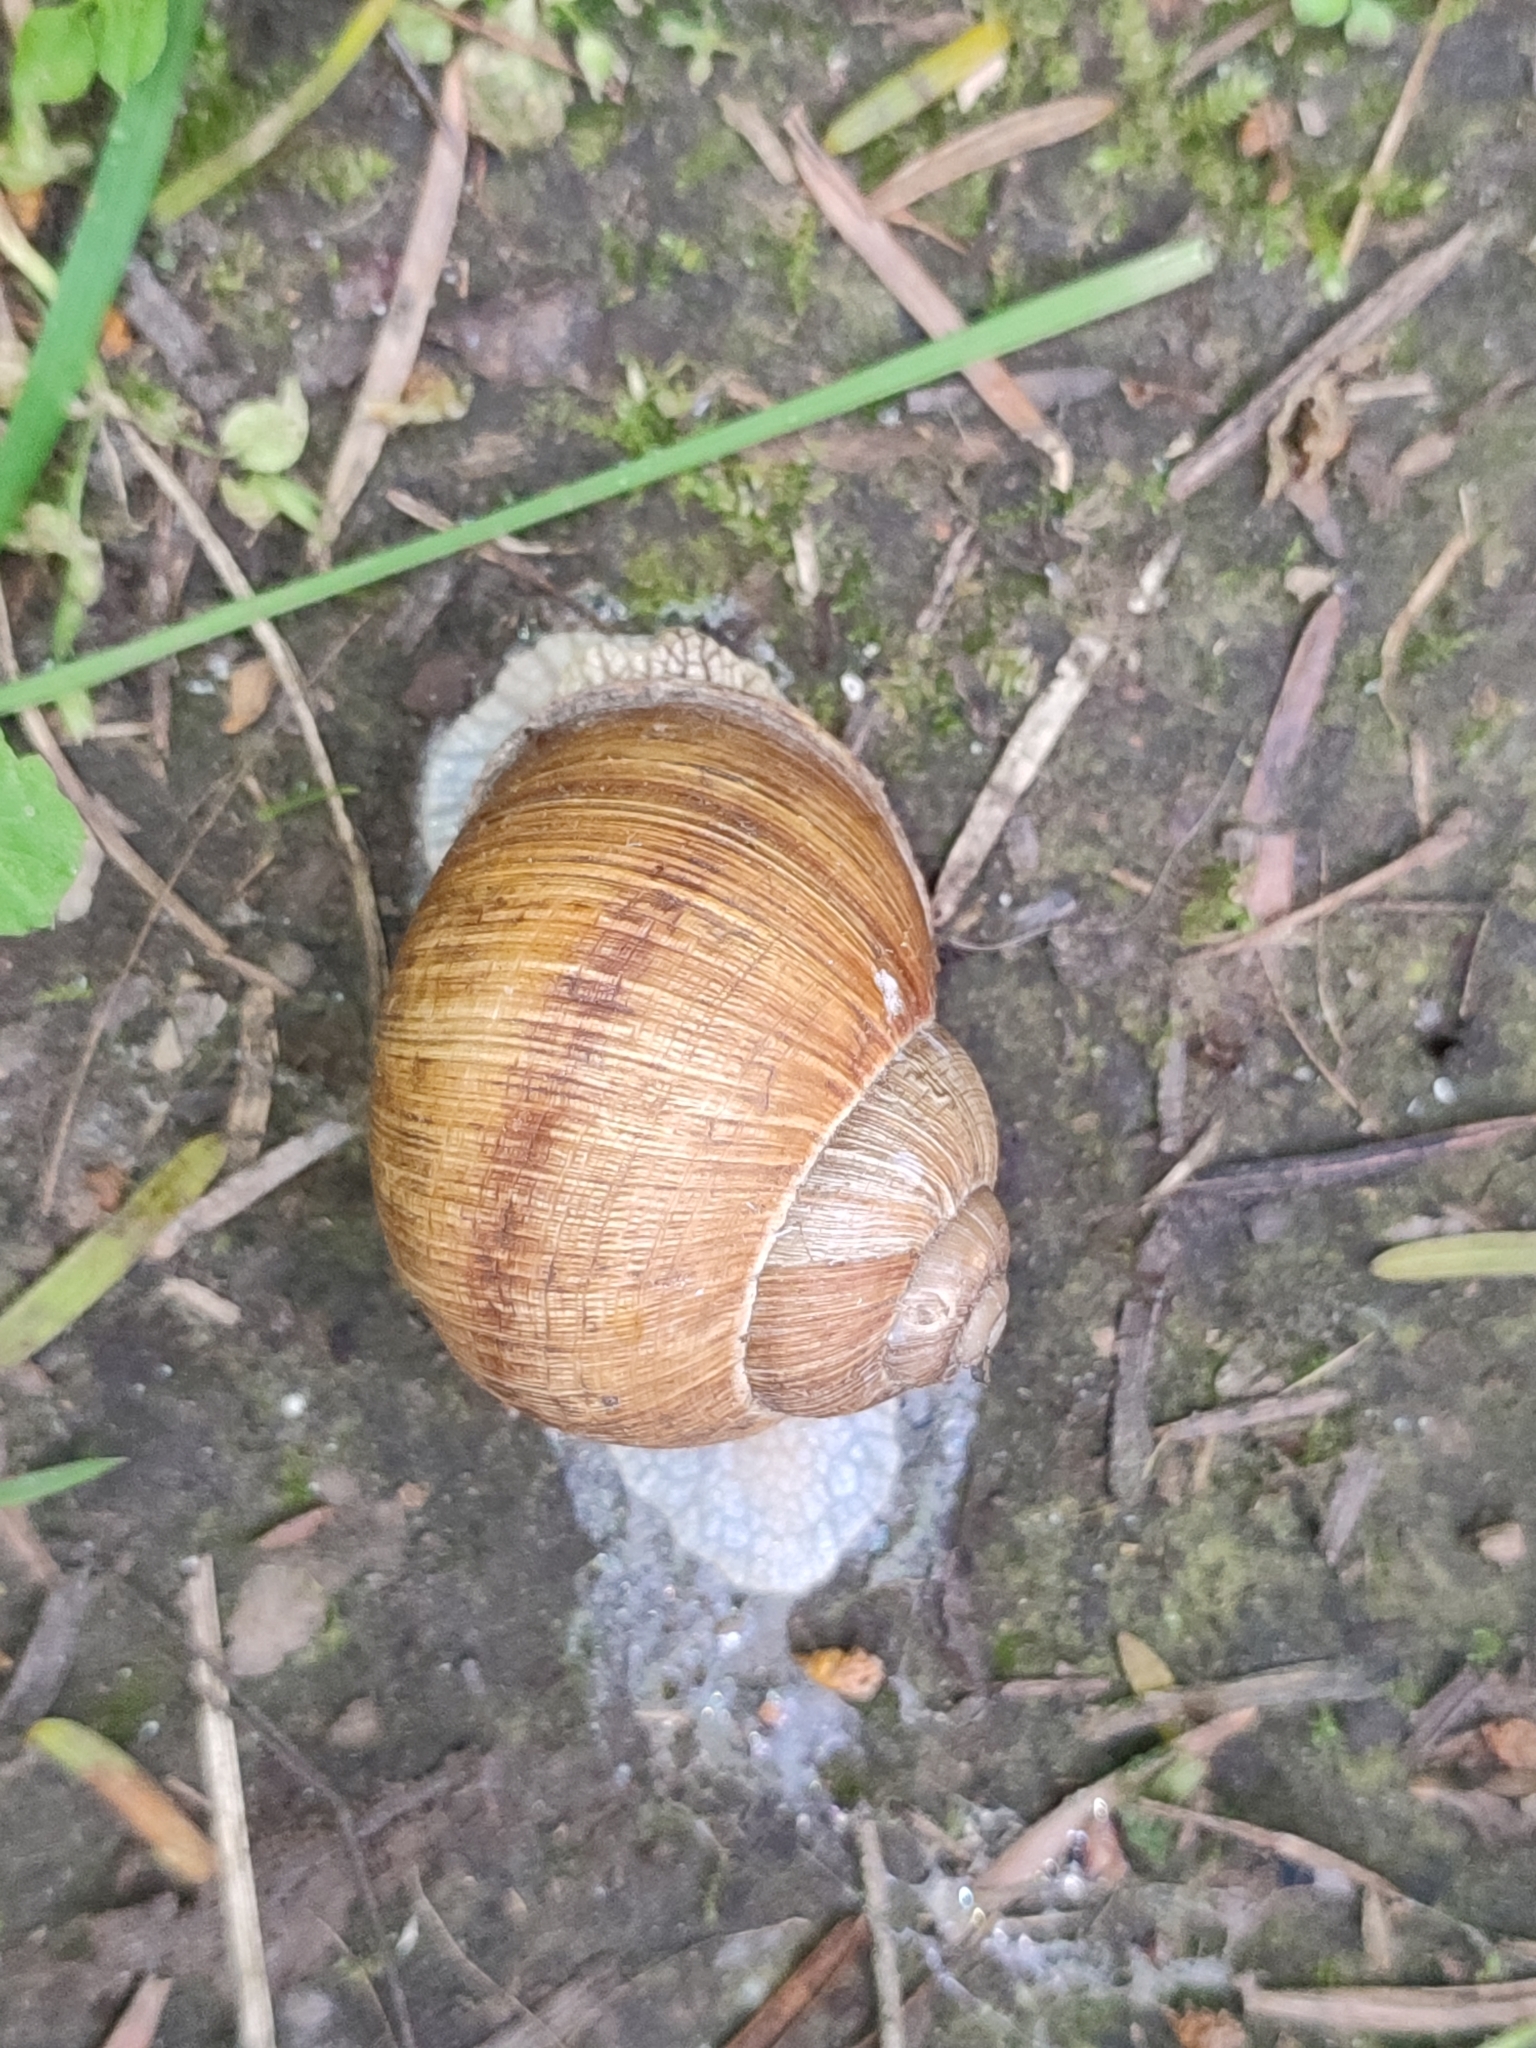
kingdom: Animalia
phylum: Mollusca
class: Gastropoda
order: Stylommatophora
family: Helicidae
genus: Helix
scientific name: Helix pomatia
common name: Roman snail
